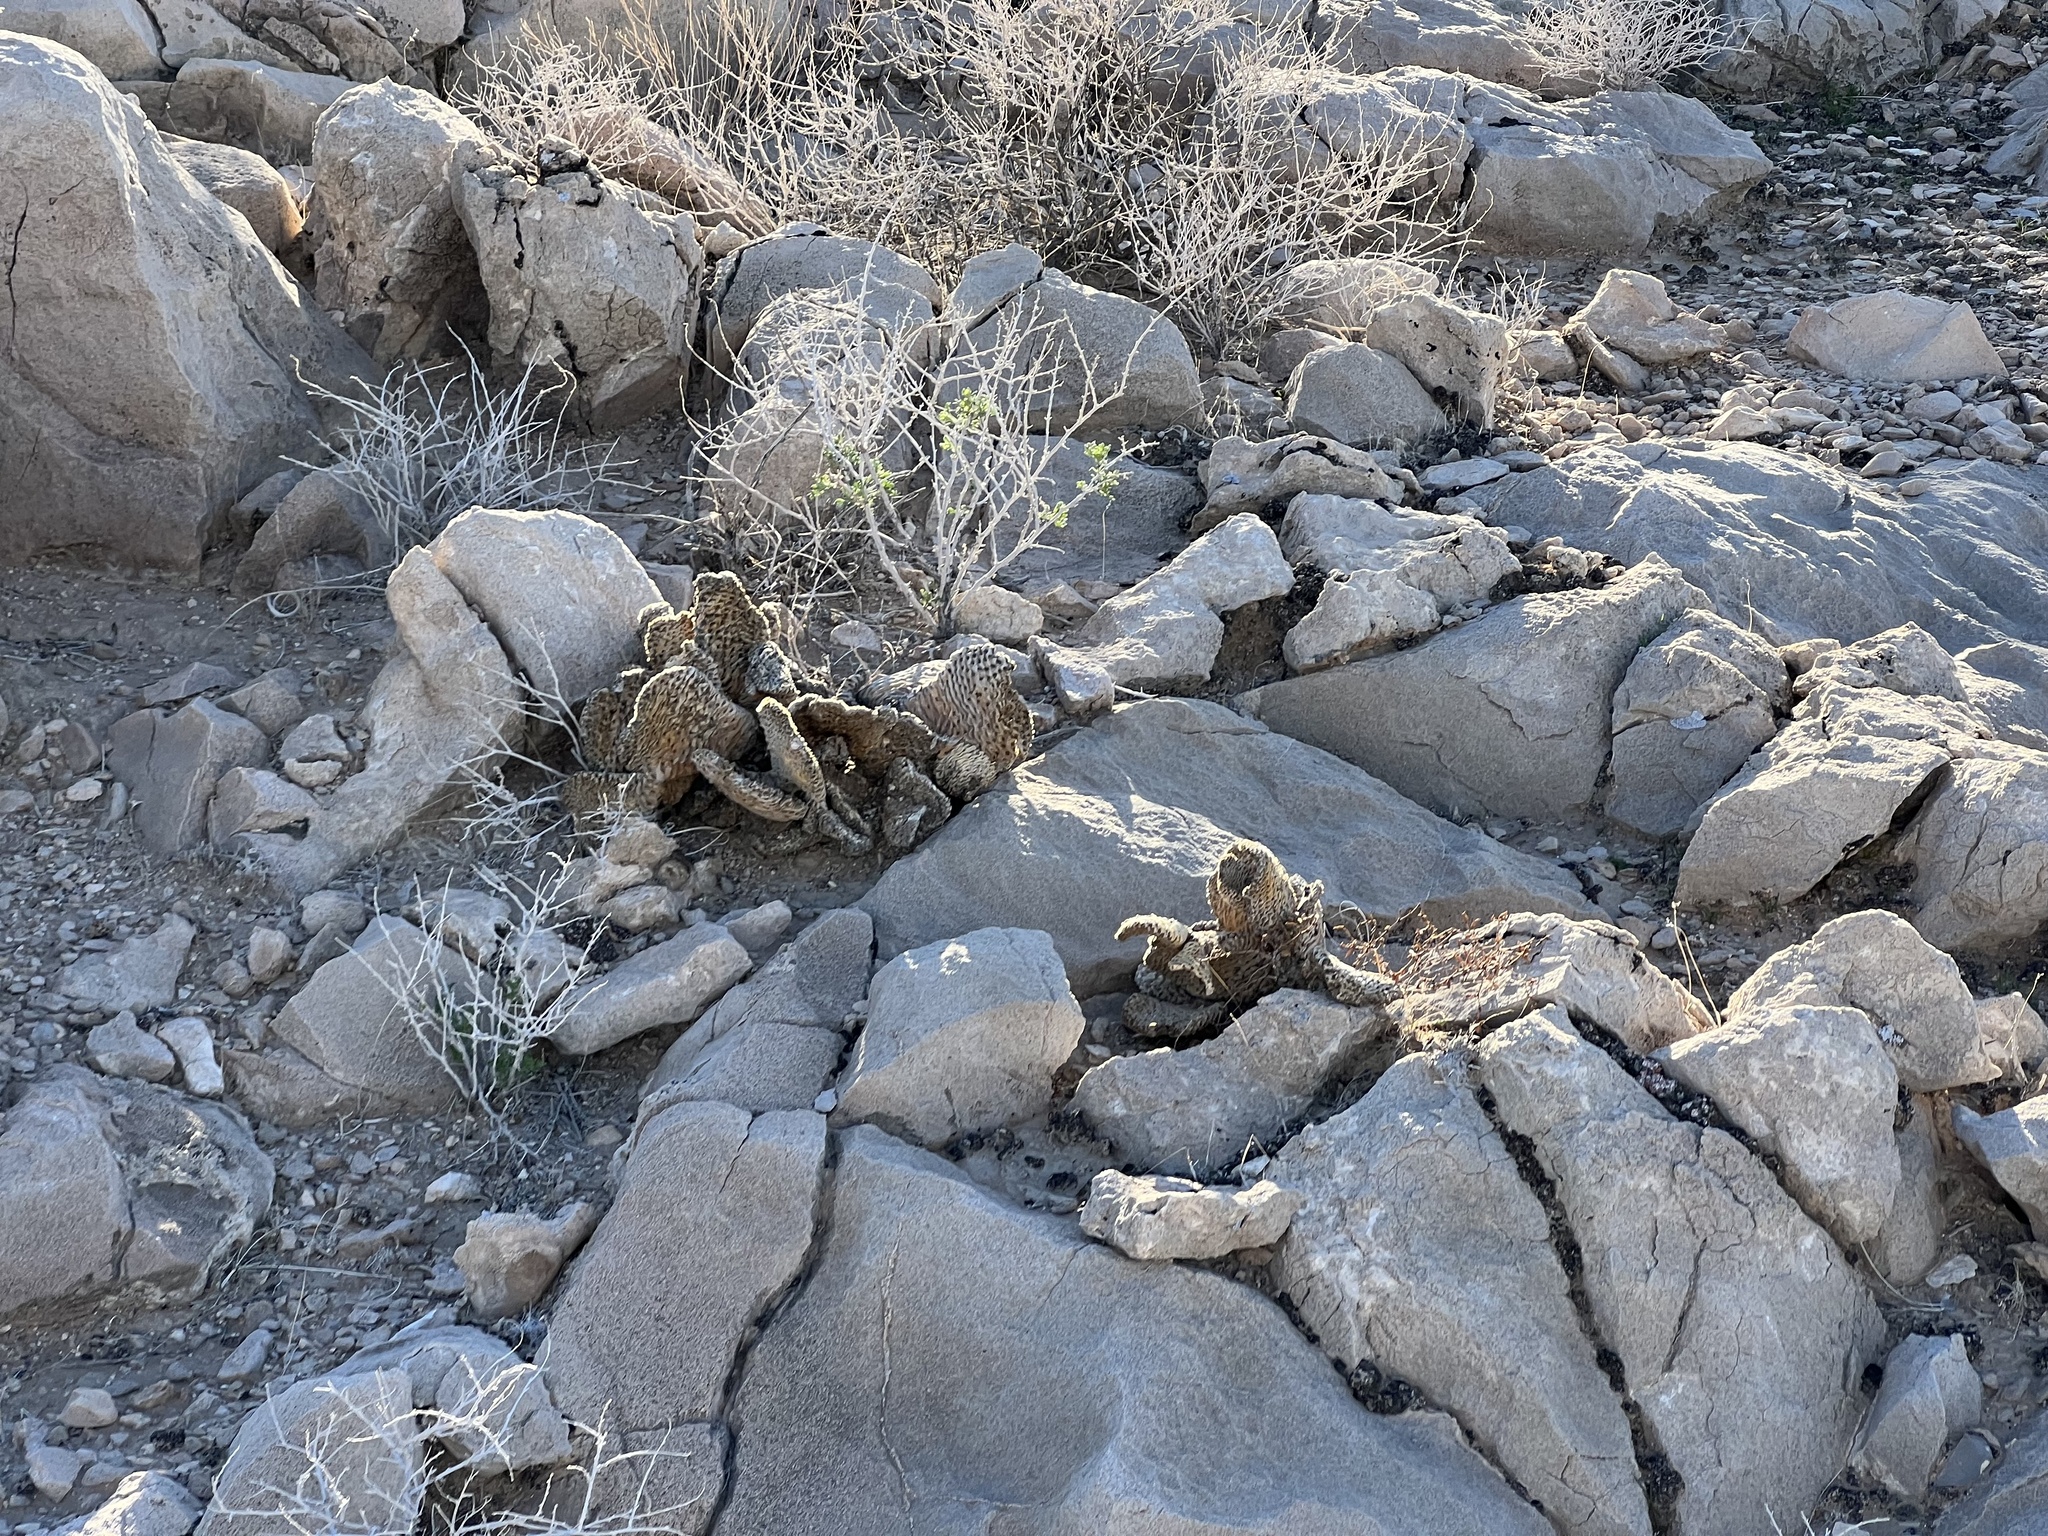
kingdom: Plantae
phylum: Tracheophyta
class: Magnoliopsida
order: Caryophyllales
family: Cactaceae
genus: Opuntia
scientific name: Opuntia basilaris
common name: Beavertail prickly-pear
